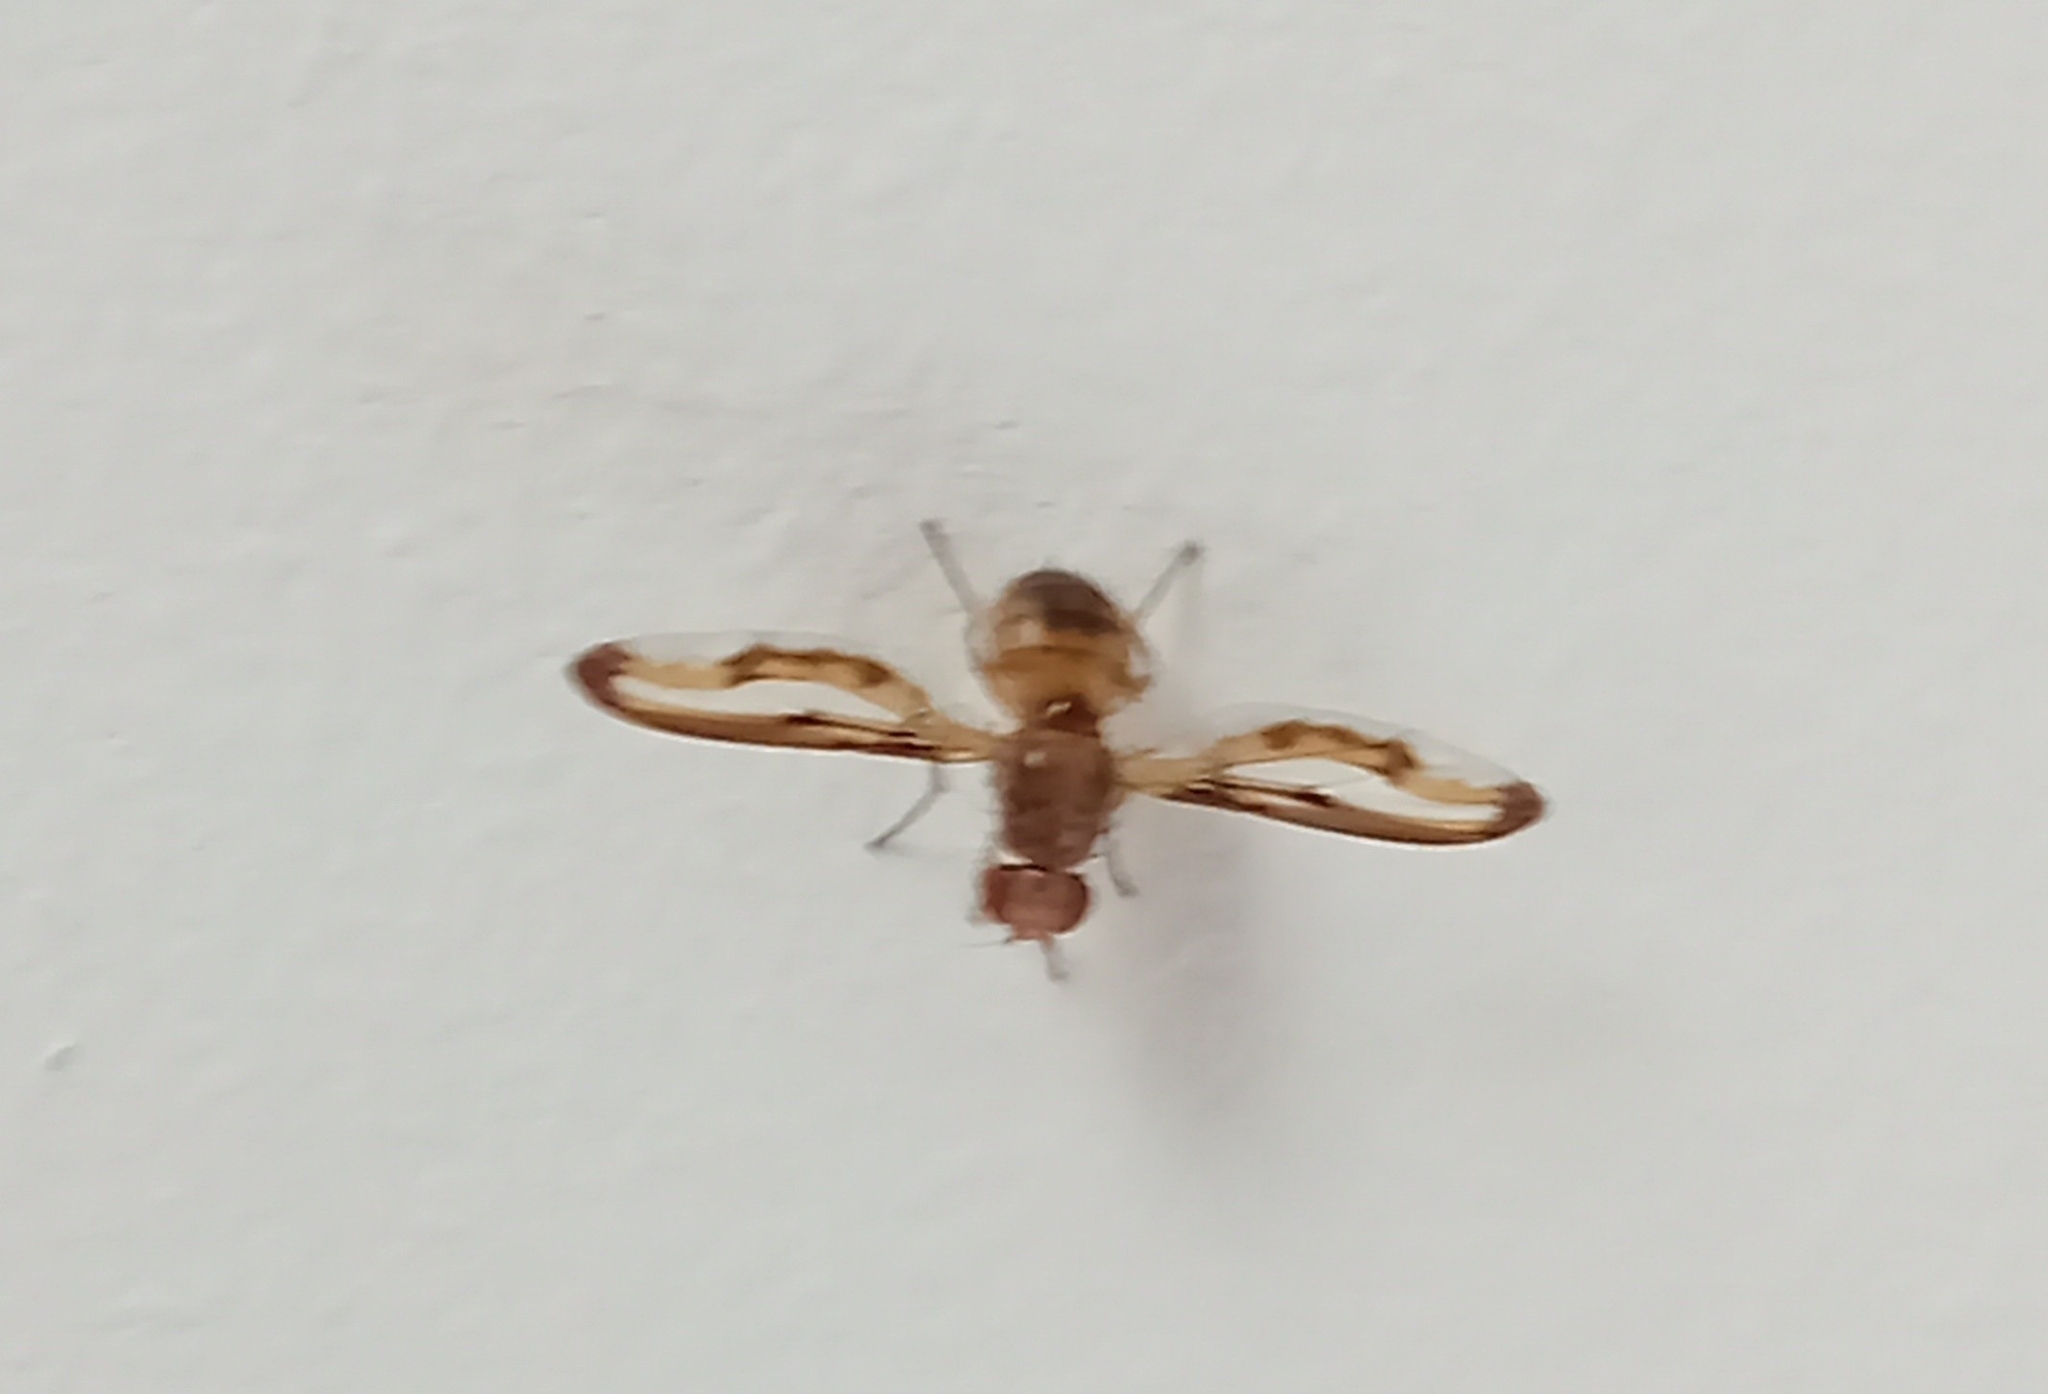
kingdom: Animalia
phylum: Arthropoda
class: Insecta
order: Diptera
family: Pallopteridae
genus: Toxonevra
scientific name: Toxonevra muliebris
